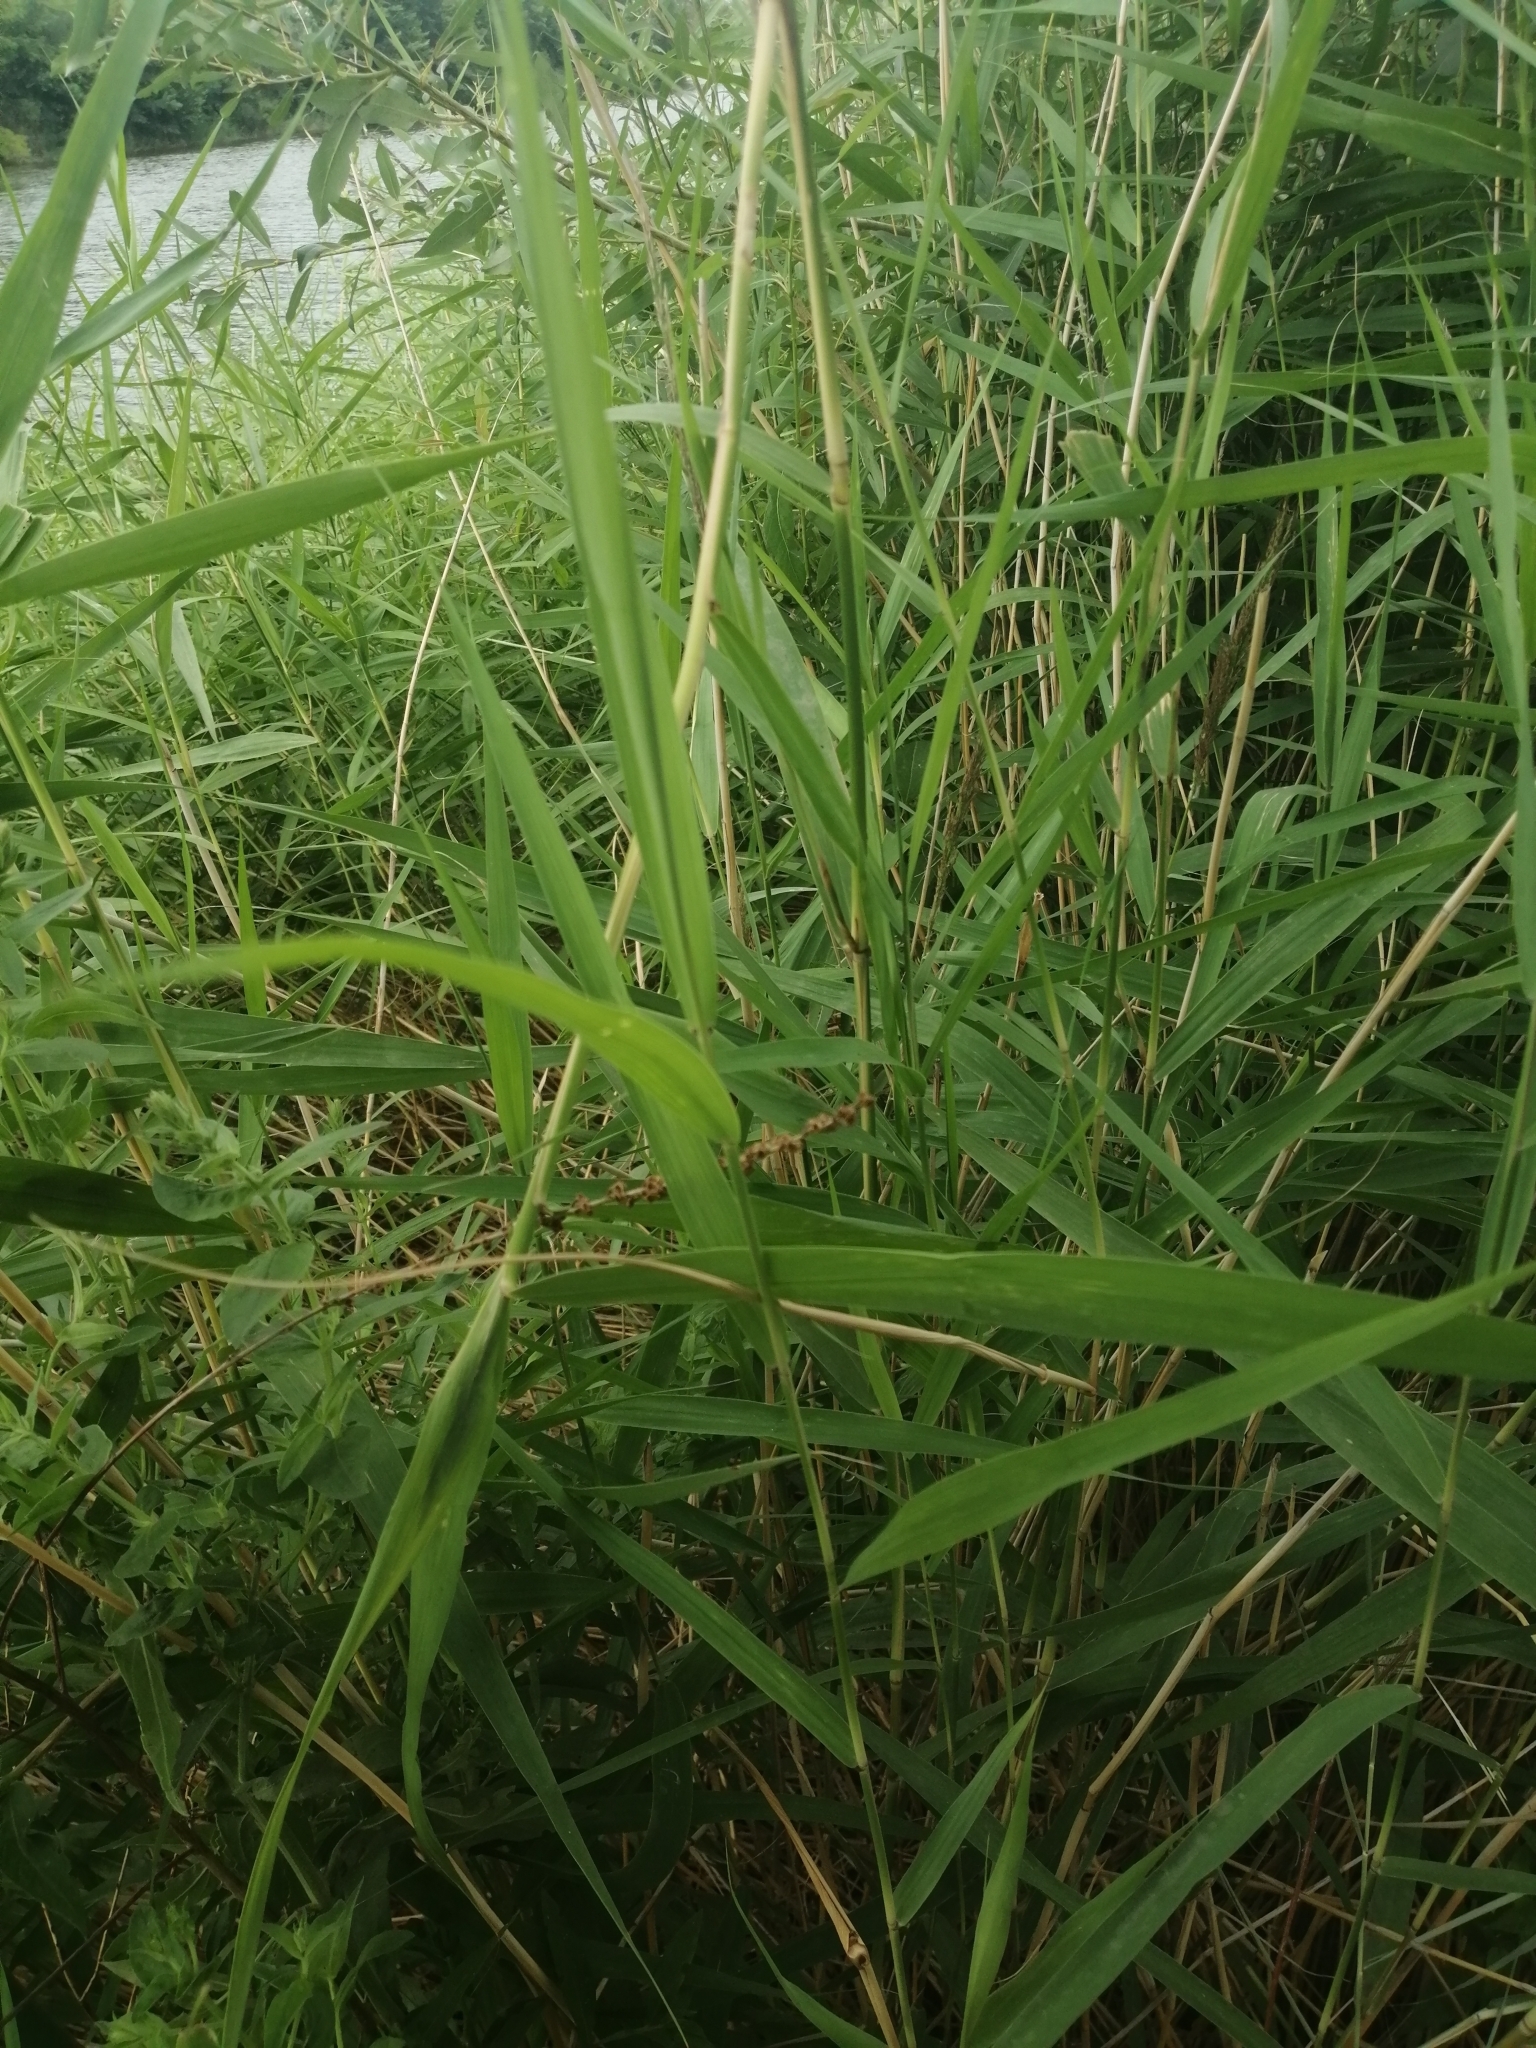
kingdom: Plantae
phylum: Tracheophyta
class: Liliopsida
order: Poales
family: Poaceae
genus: Phragmites
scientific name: Phragmites australis
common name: Common reed
